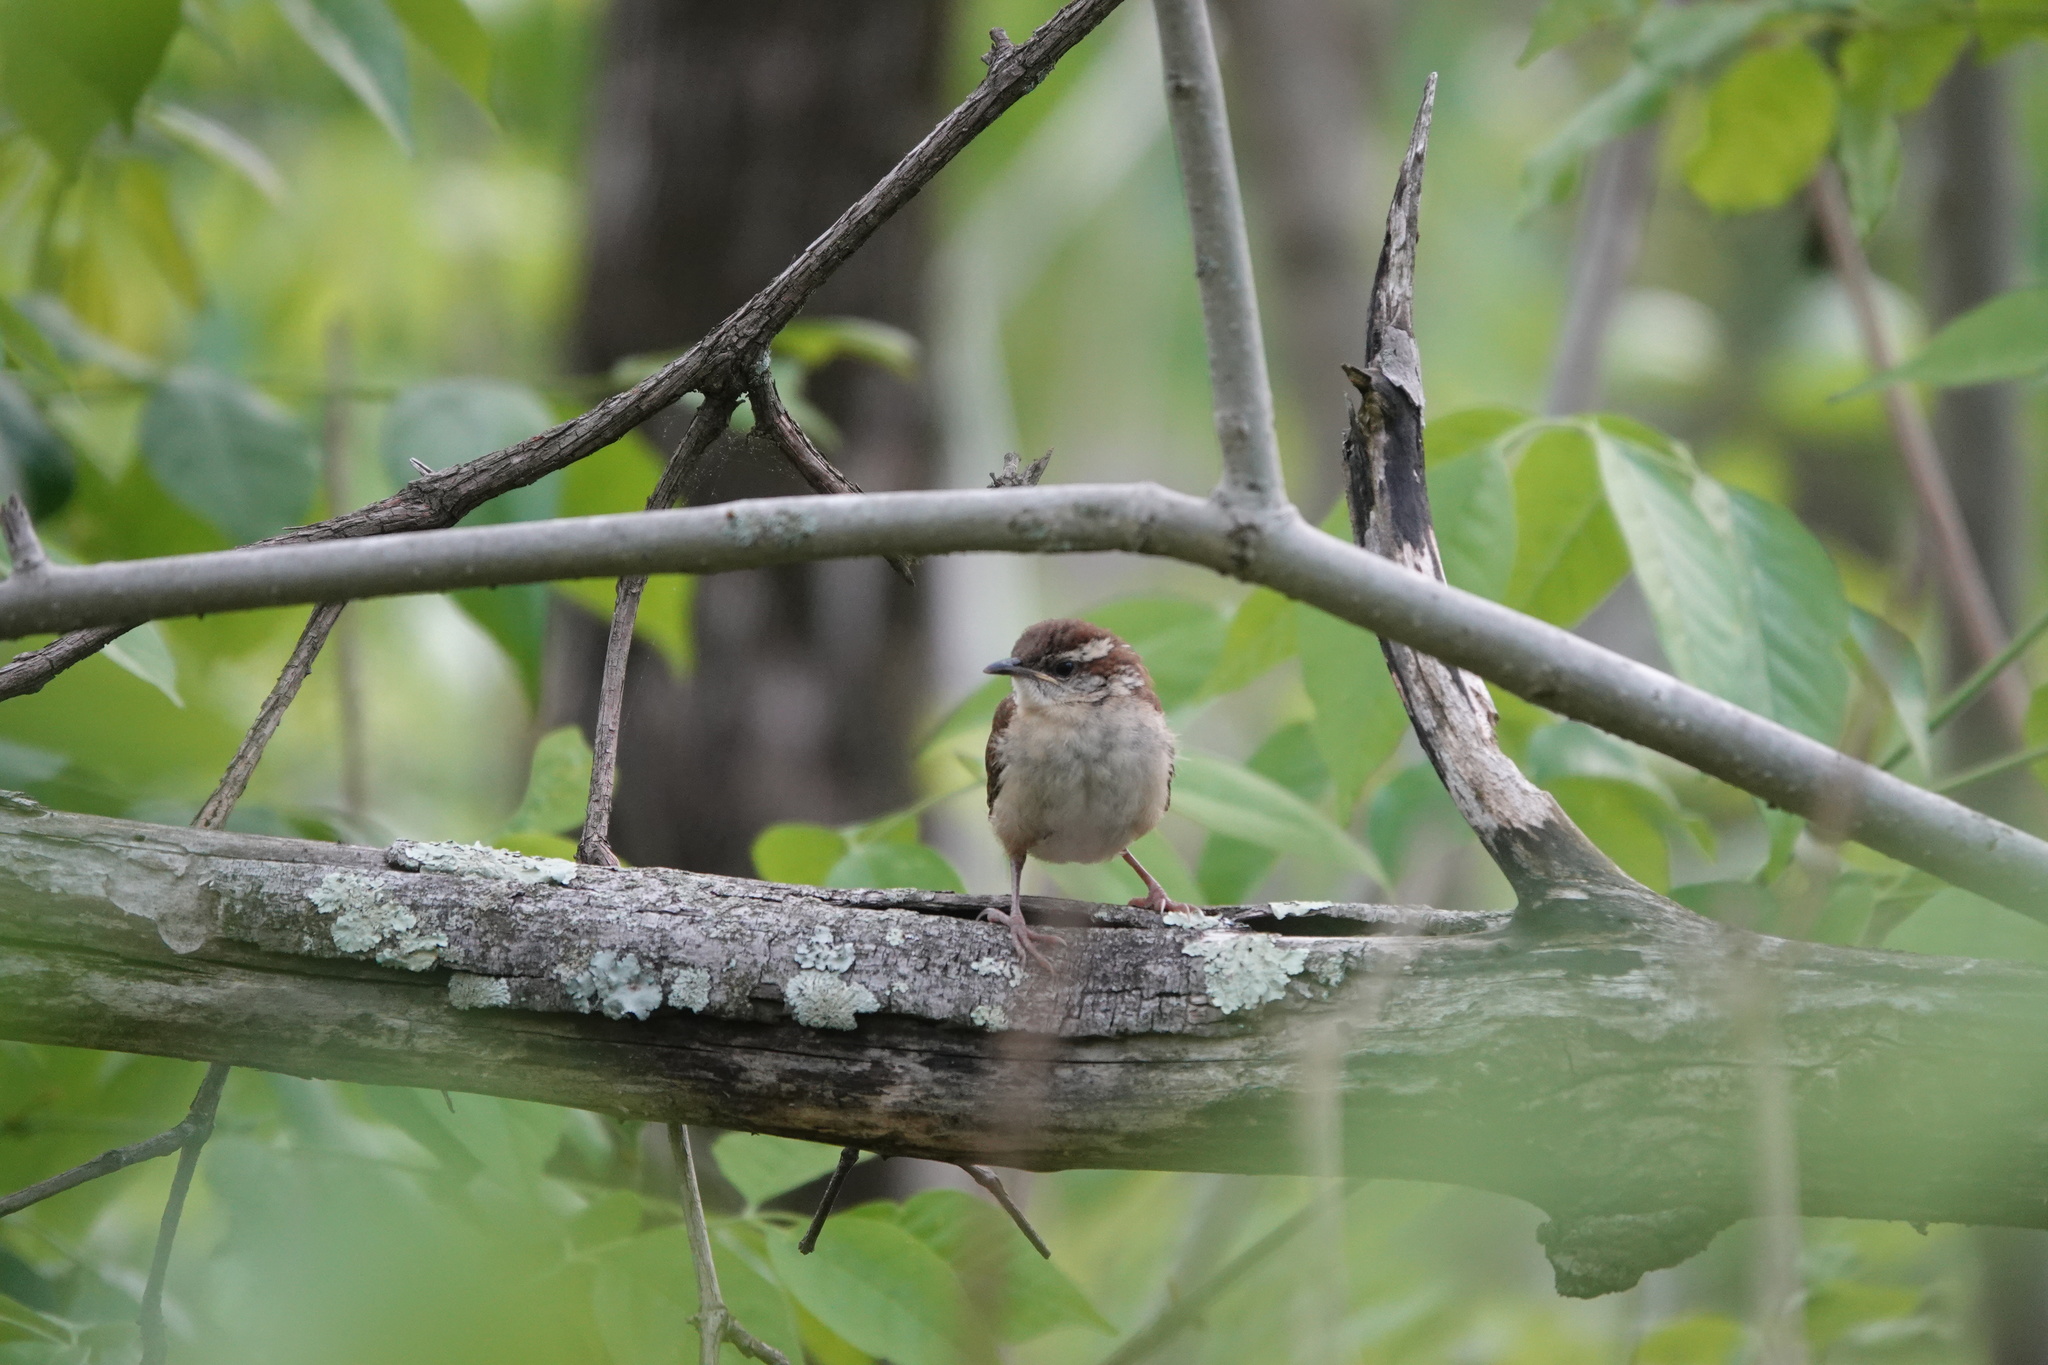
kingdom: Animalia
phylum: Chordata
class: Aves
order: Passeriformes
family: Troglodytidae
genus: Thryothorus
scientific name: Thryothorus ludovicianus
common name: Carolina wren
